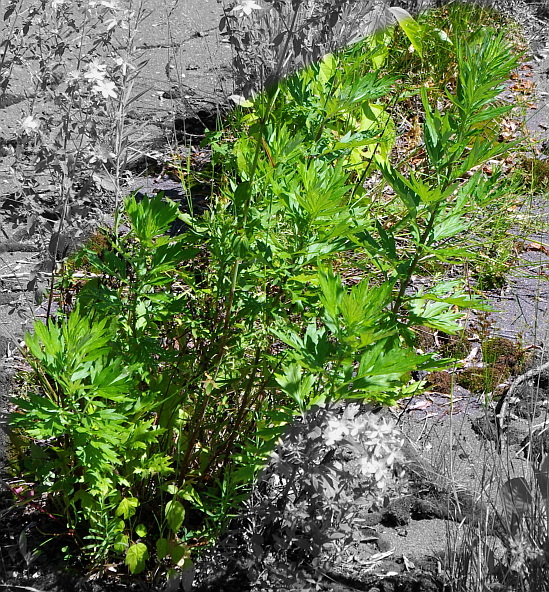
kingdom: Plantae
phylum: Tracheophyta
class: Magnoliopsida
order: Asterales
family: Asteraceae
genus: Artemisia
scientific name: Artemisia vulgaris
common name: Mugwort
